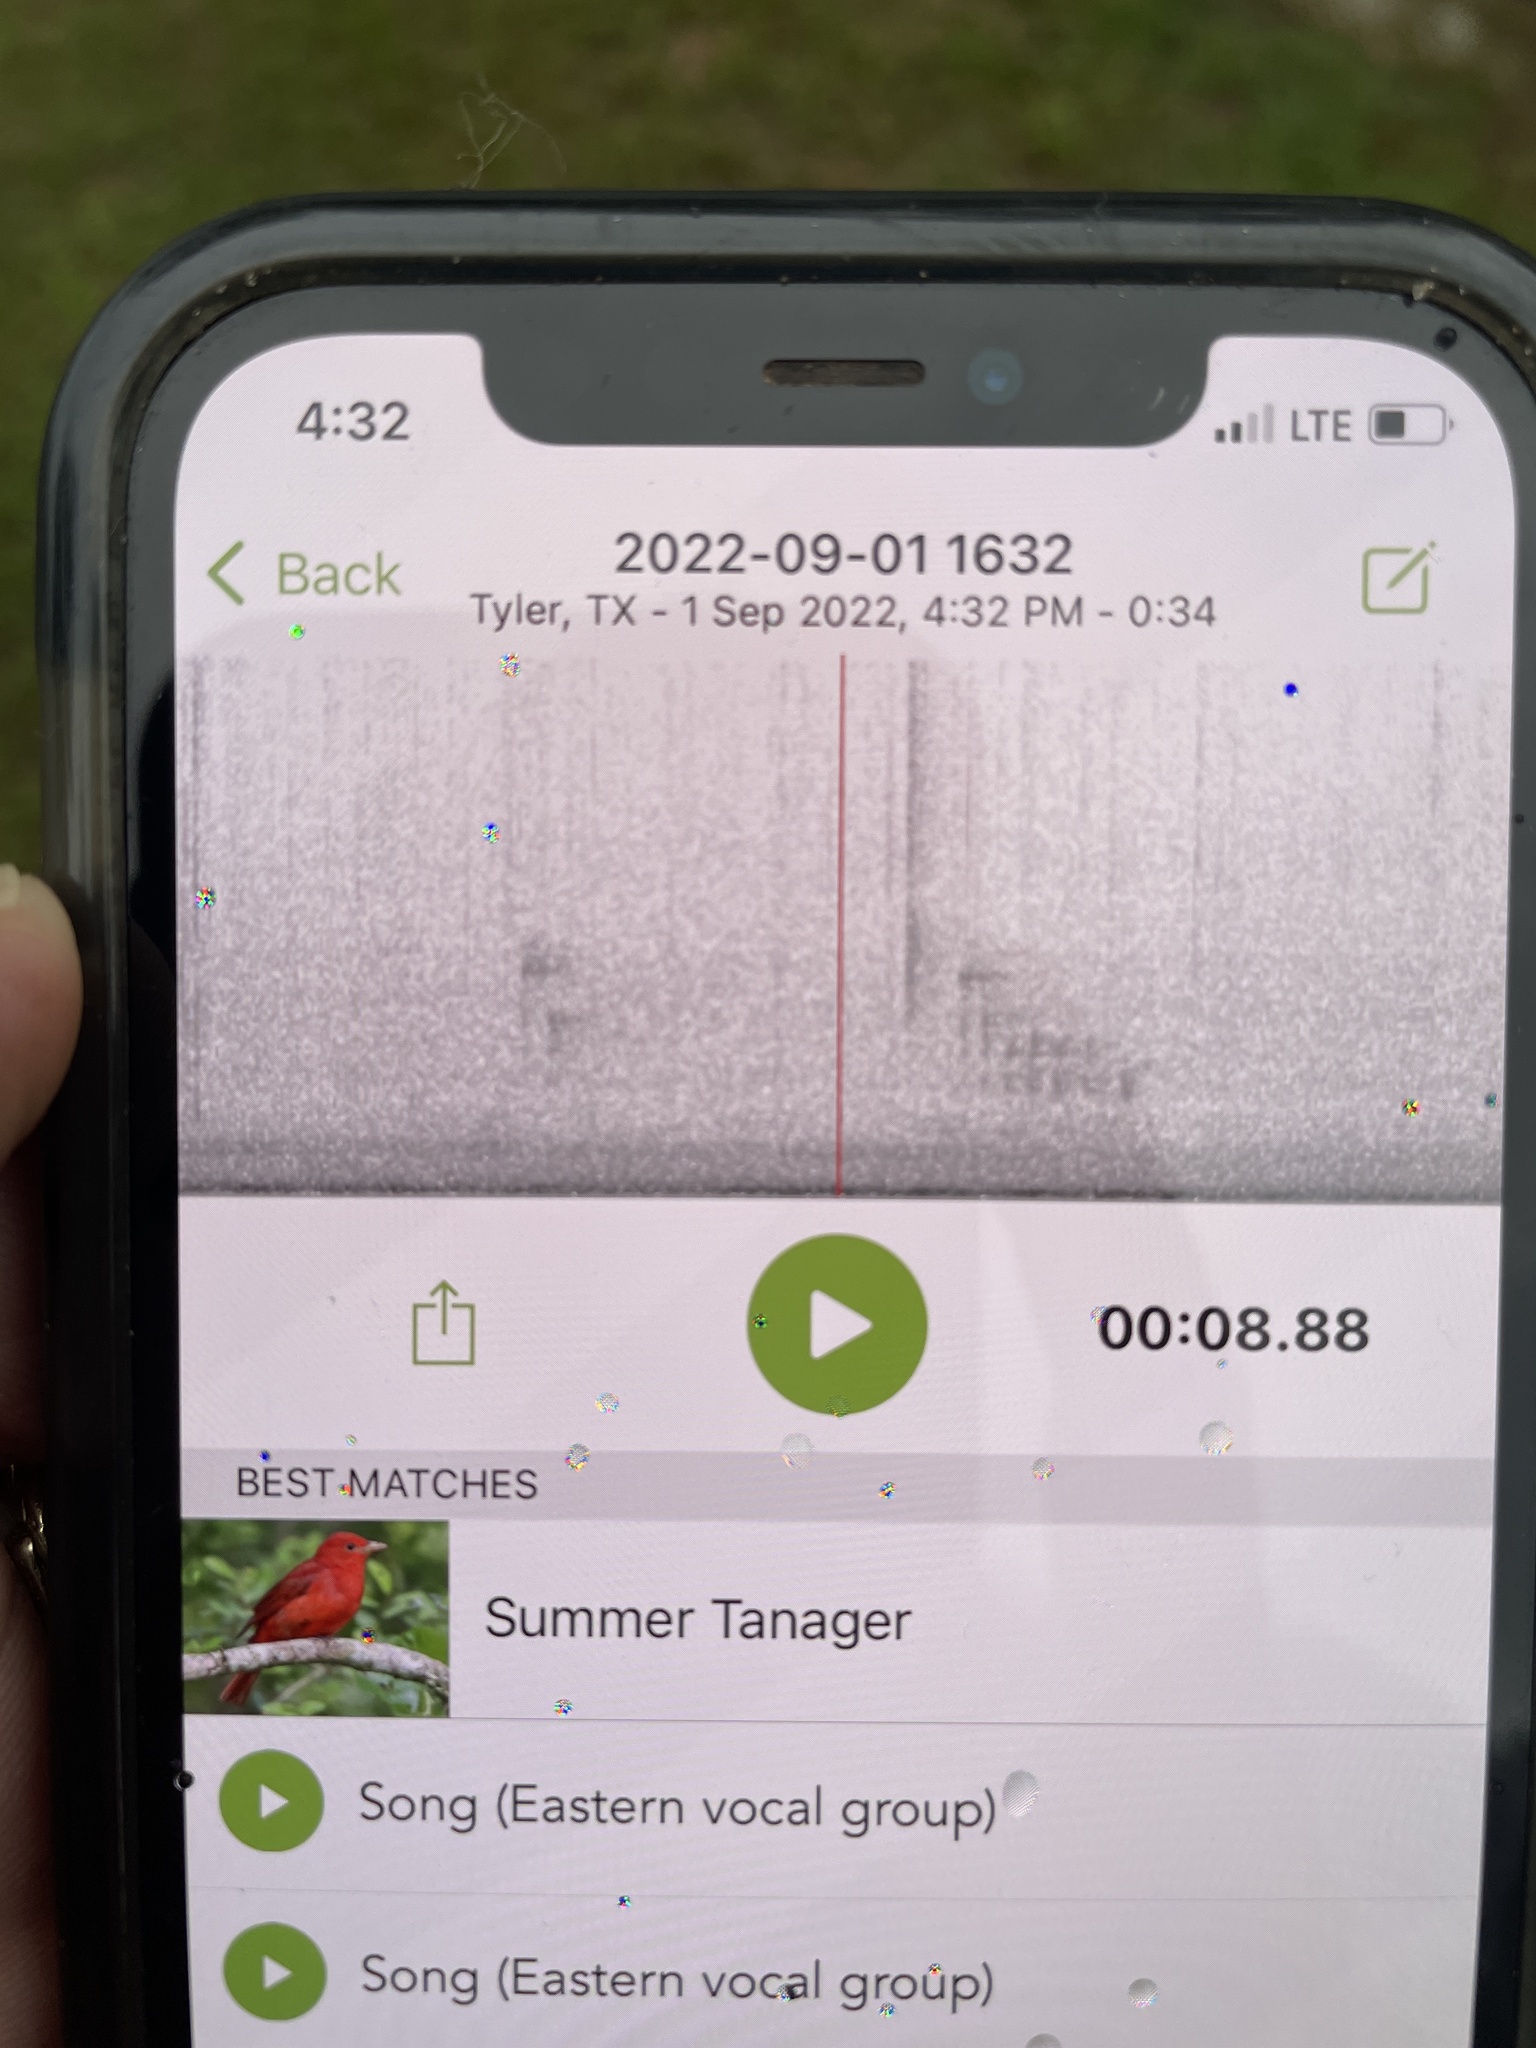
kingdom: Animalia
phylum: Chordata
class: Aves
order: Passeriformes
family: Cardinalidae
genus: Piranga
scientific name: Piranga rubra
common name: Summer tanager
